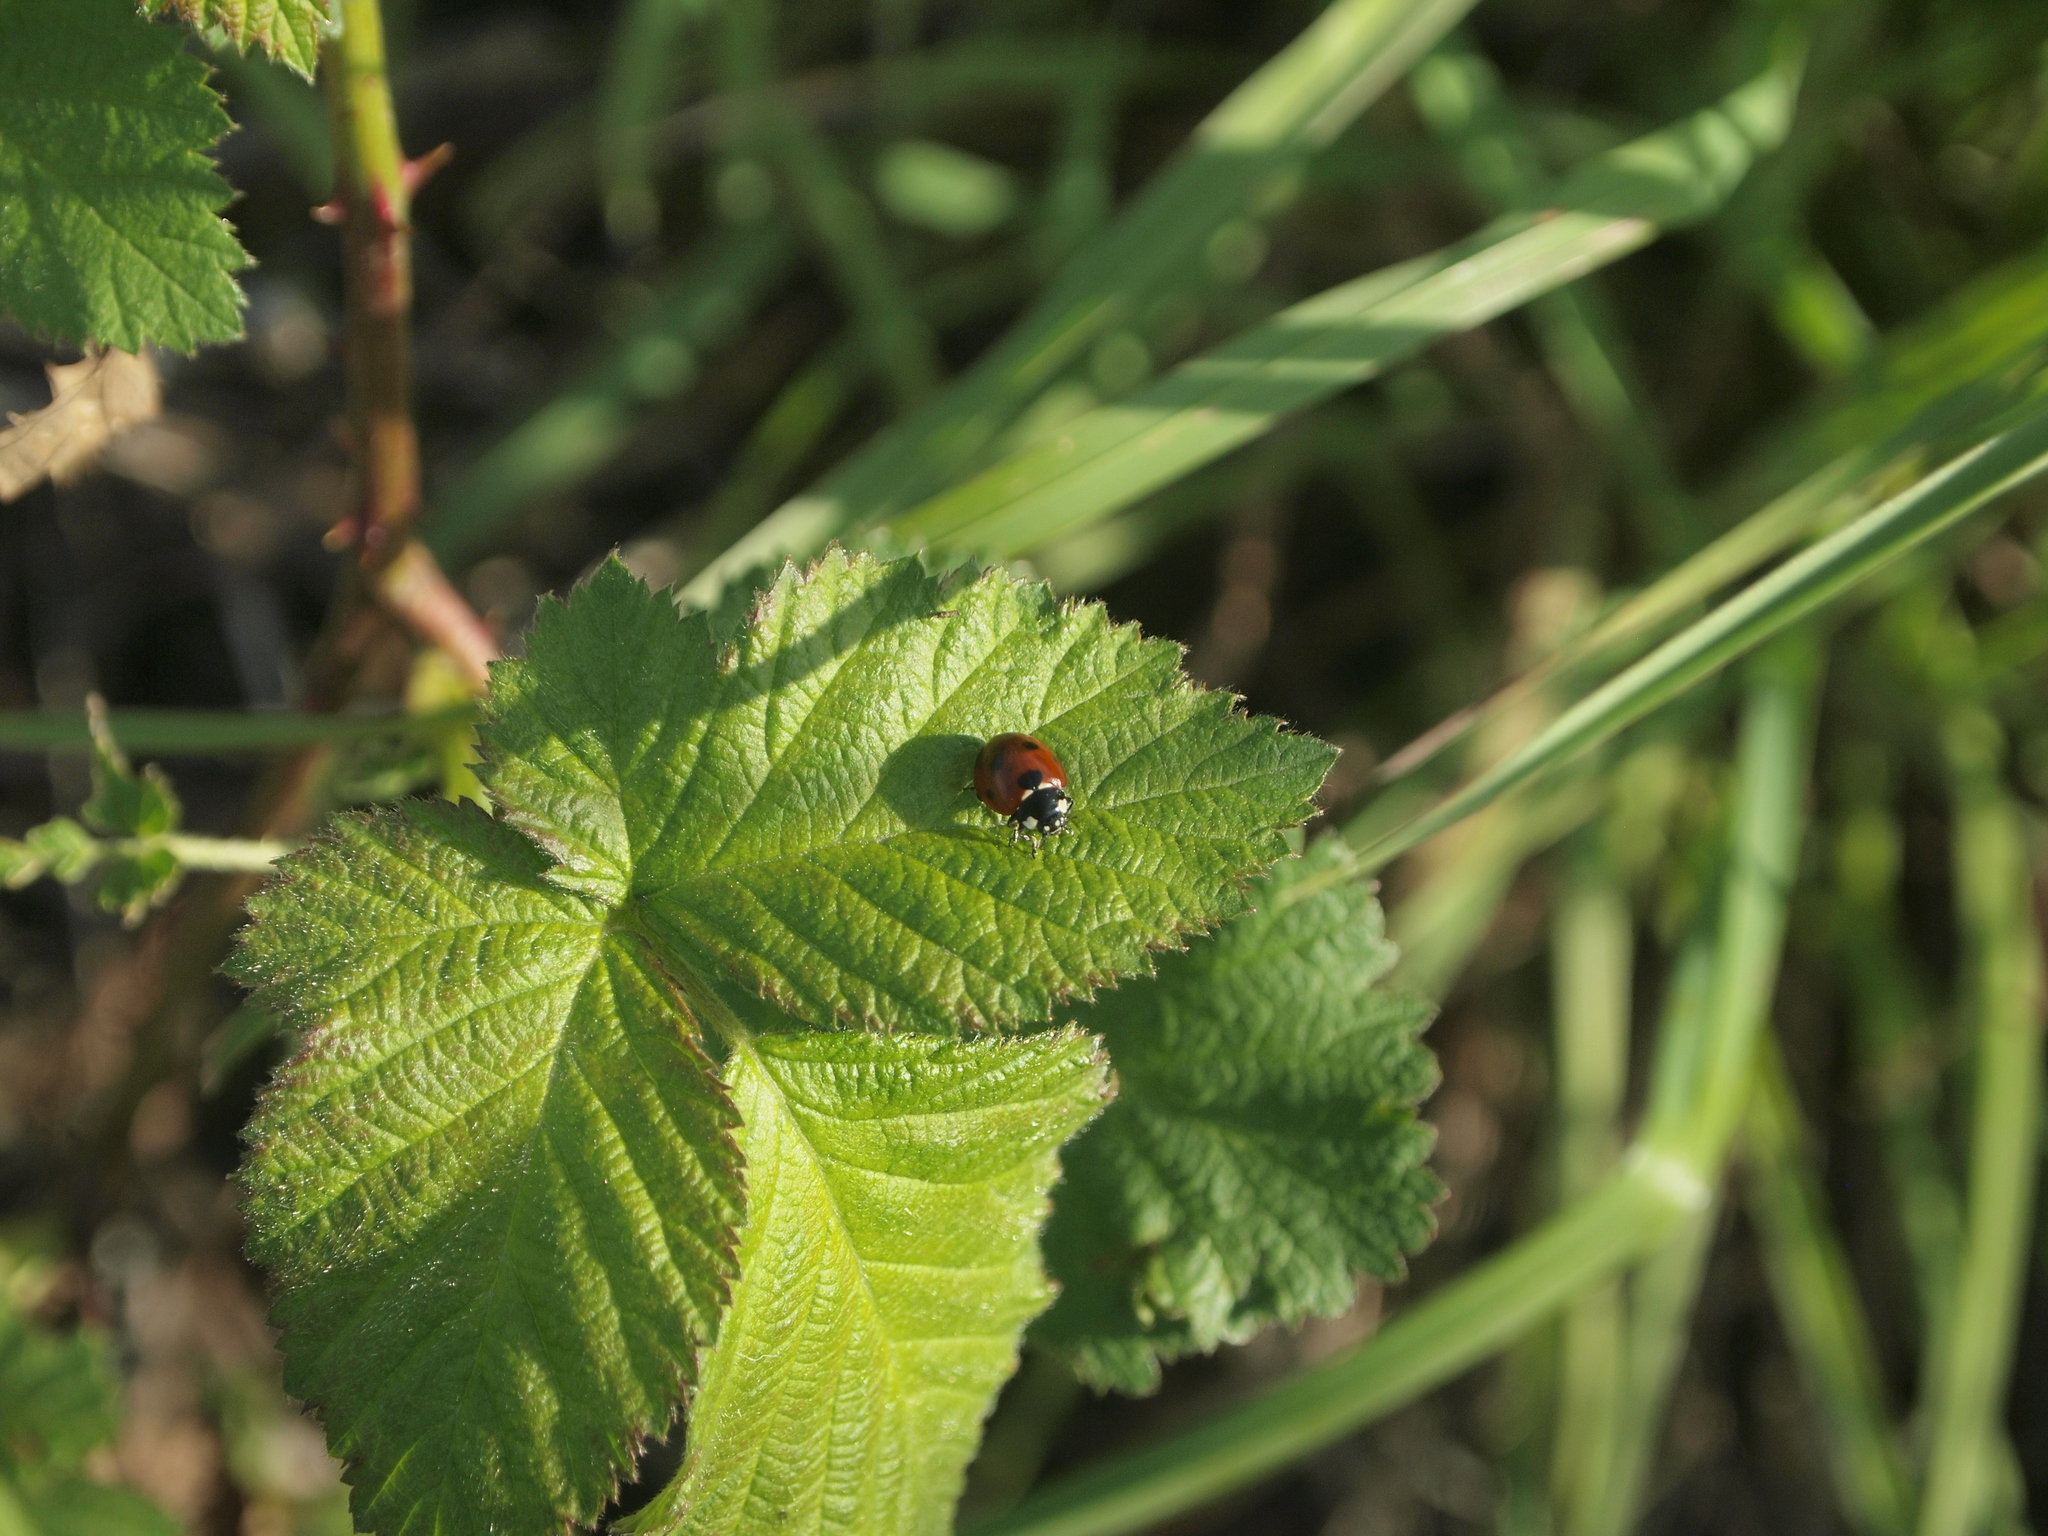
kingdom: Animalia
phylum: Arthropoda
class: Insecta
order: Coleoptera
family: Coccinellidae
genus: Coccinella
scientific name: Coccinella septempunctata
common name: Sevenspotted lady beetle
